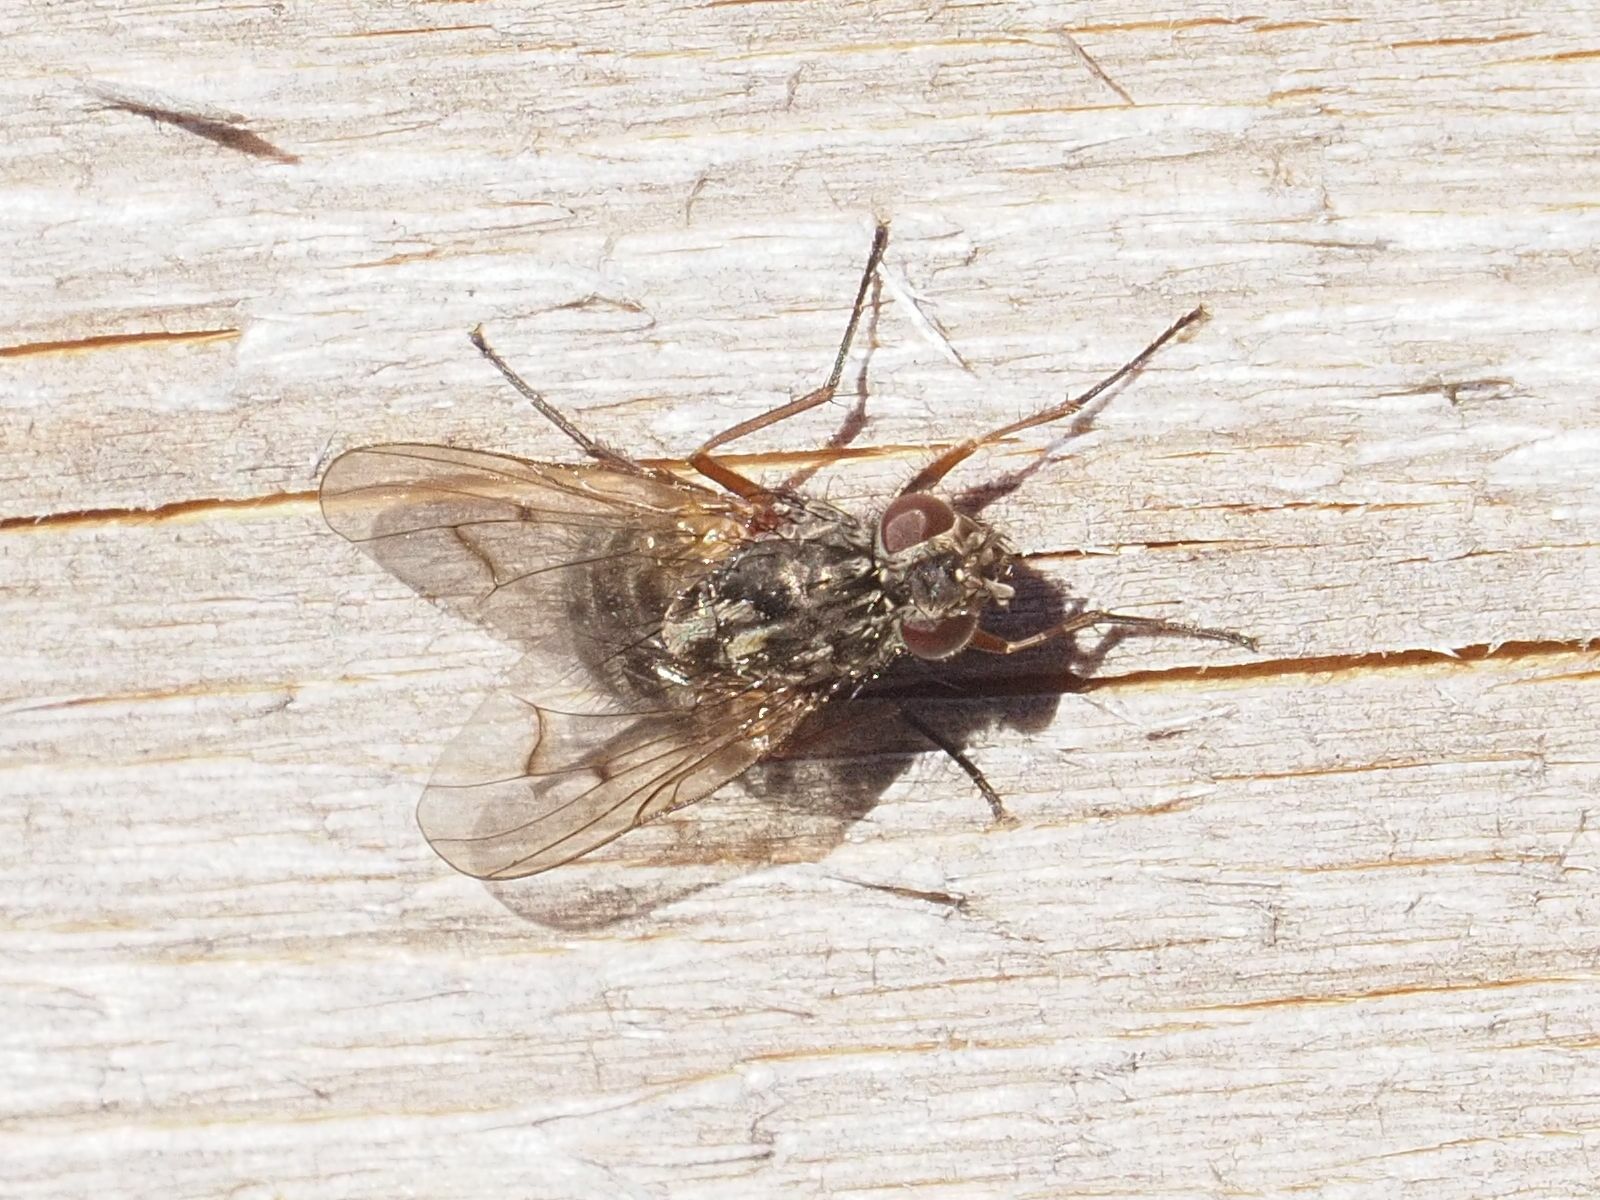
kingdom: Animalia
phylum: Arthropoda
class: Insecta
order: Diptera
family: Muscidae
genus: Phaonia
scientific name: Phaonia tuguriorum
